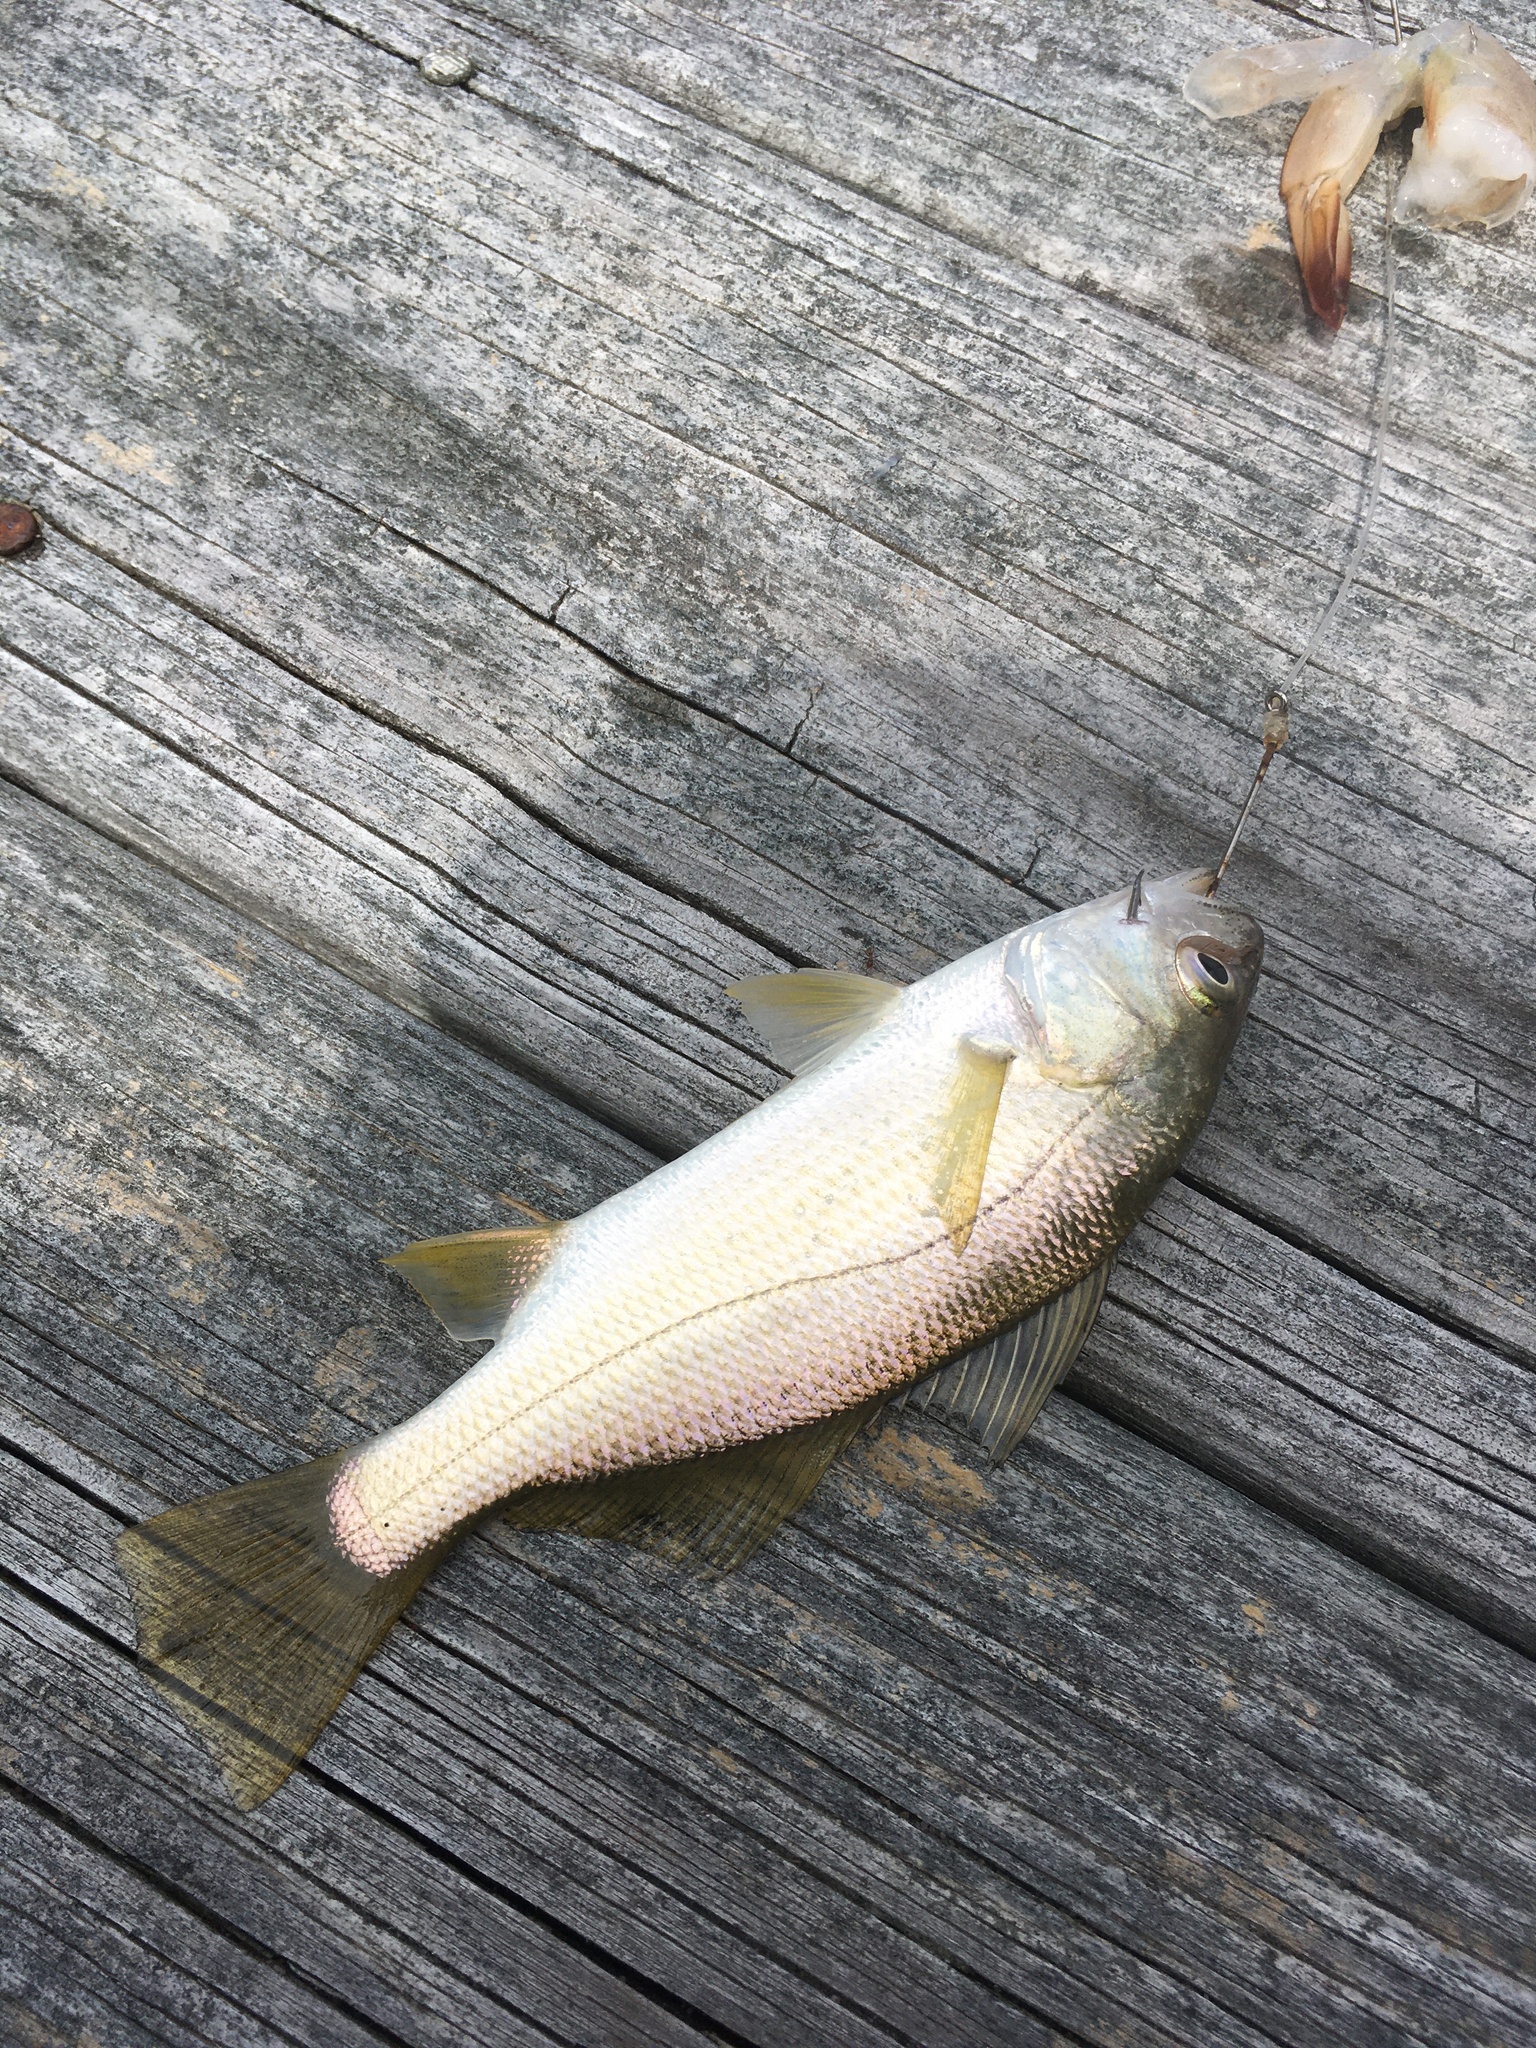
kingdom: Animalia
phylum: Chordata
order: Perciformes
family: Sciaenidae
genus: Bairdiella
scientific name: Bairdiella chrysoura
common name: Silver perch
